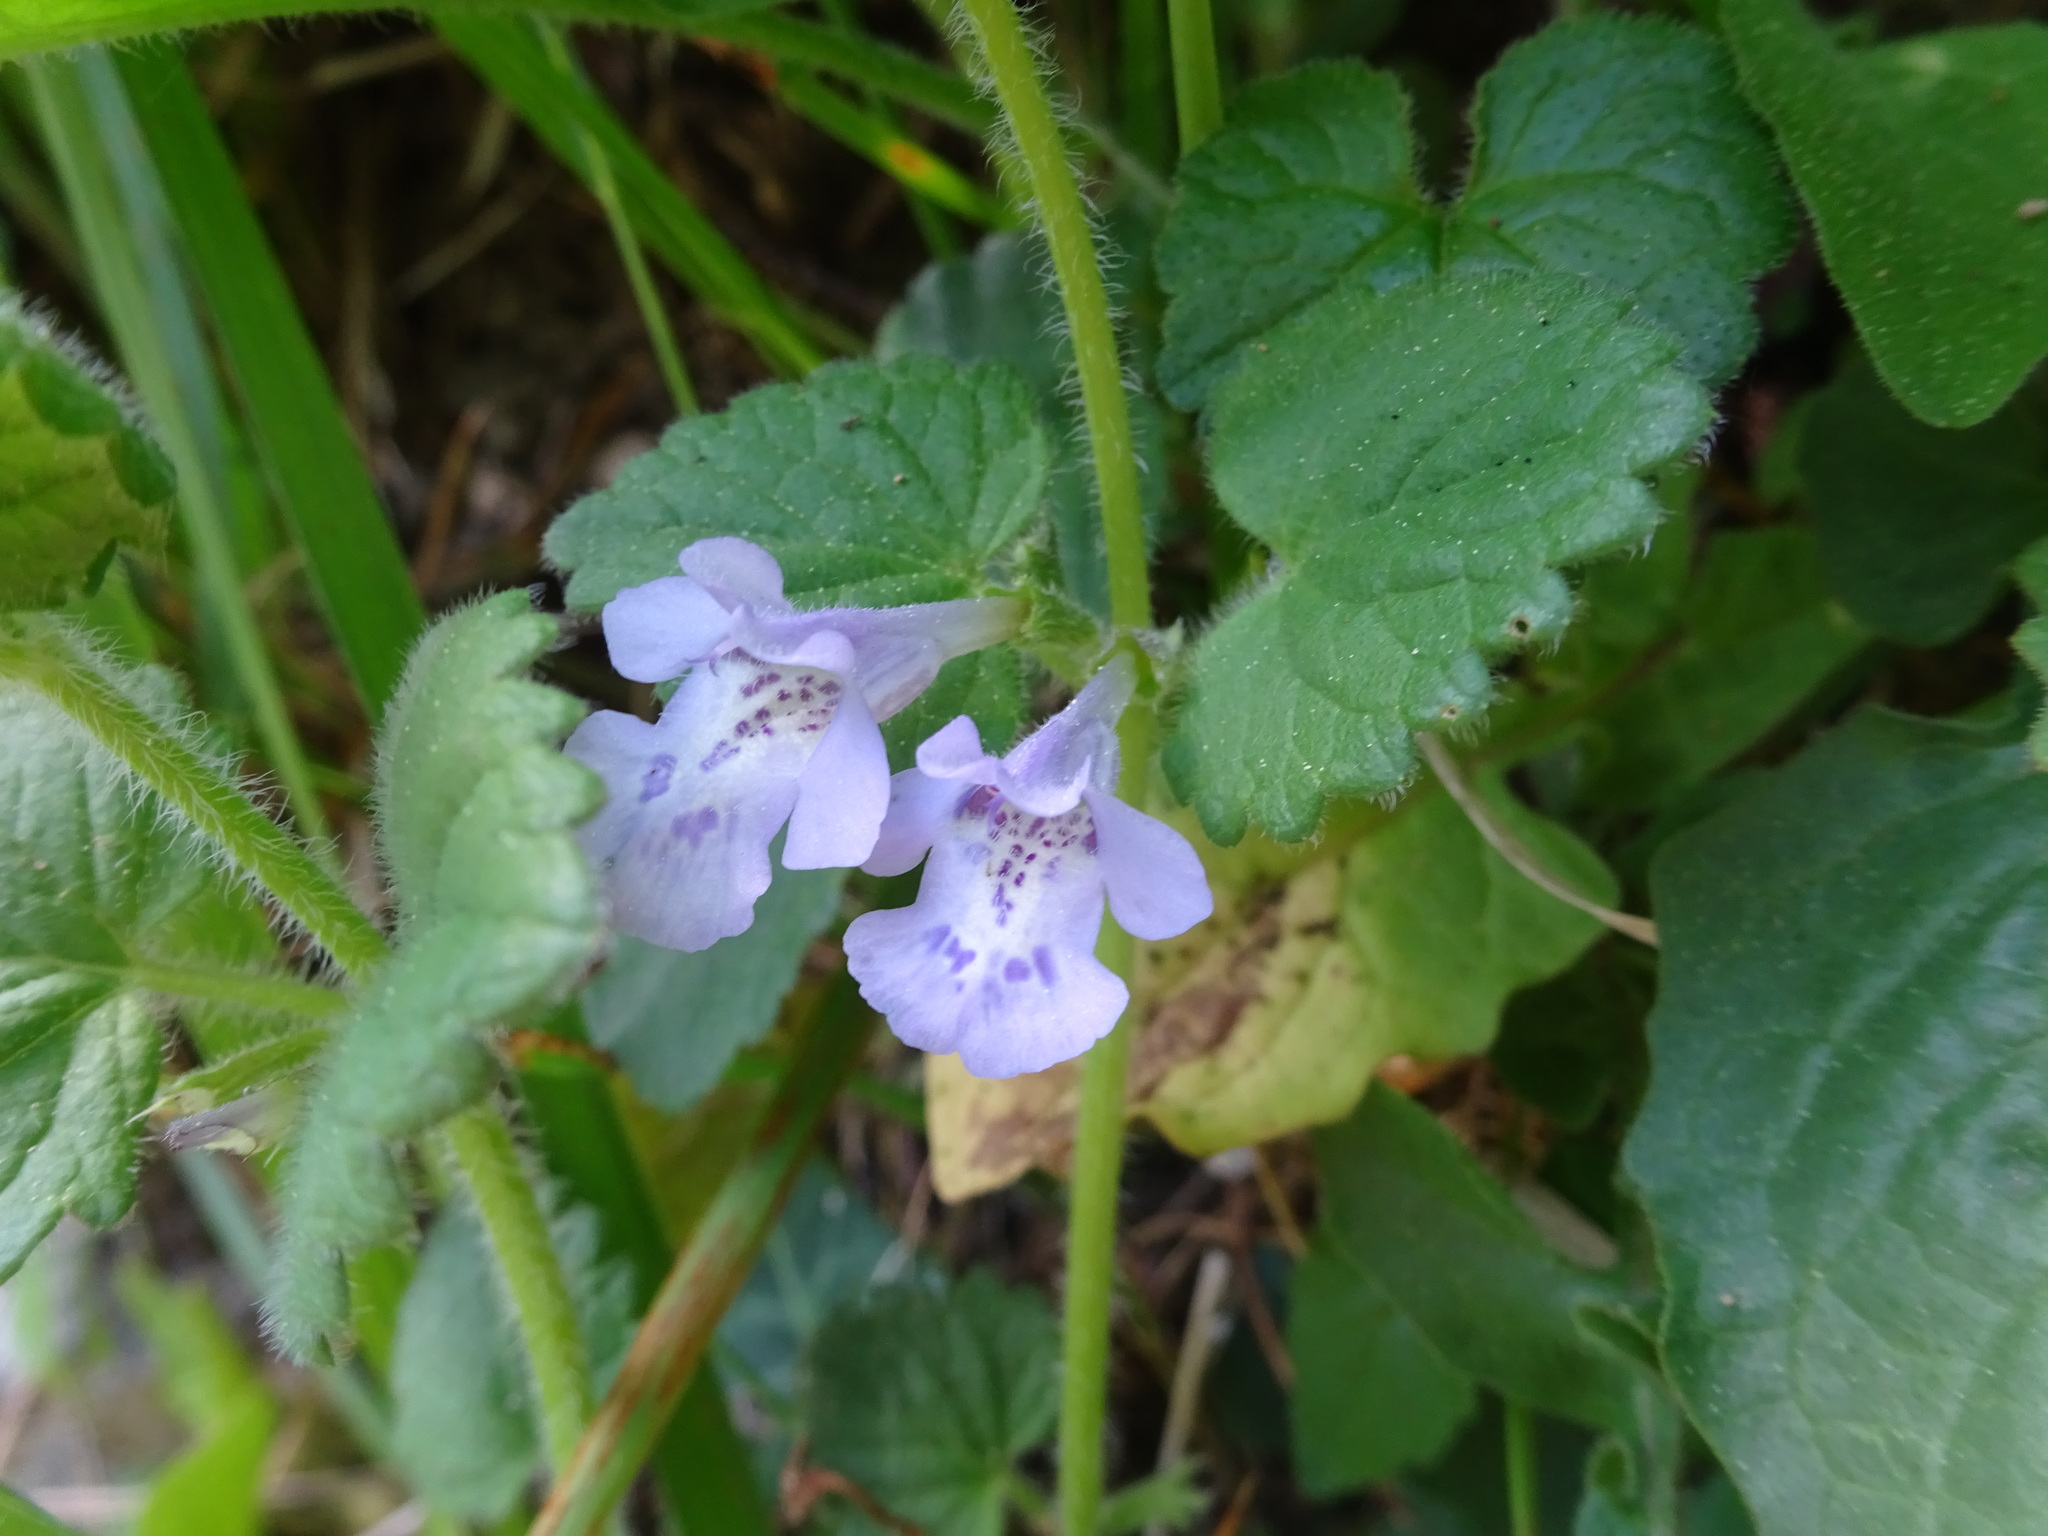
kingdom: Plantae
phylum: Tracheophyta
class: Magnoliopsida
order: Lamiales
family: Lamiaceae
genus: Glechoma
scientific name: Glechoma hederacea
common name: Ground ivy
